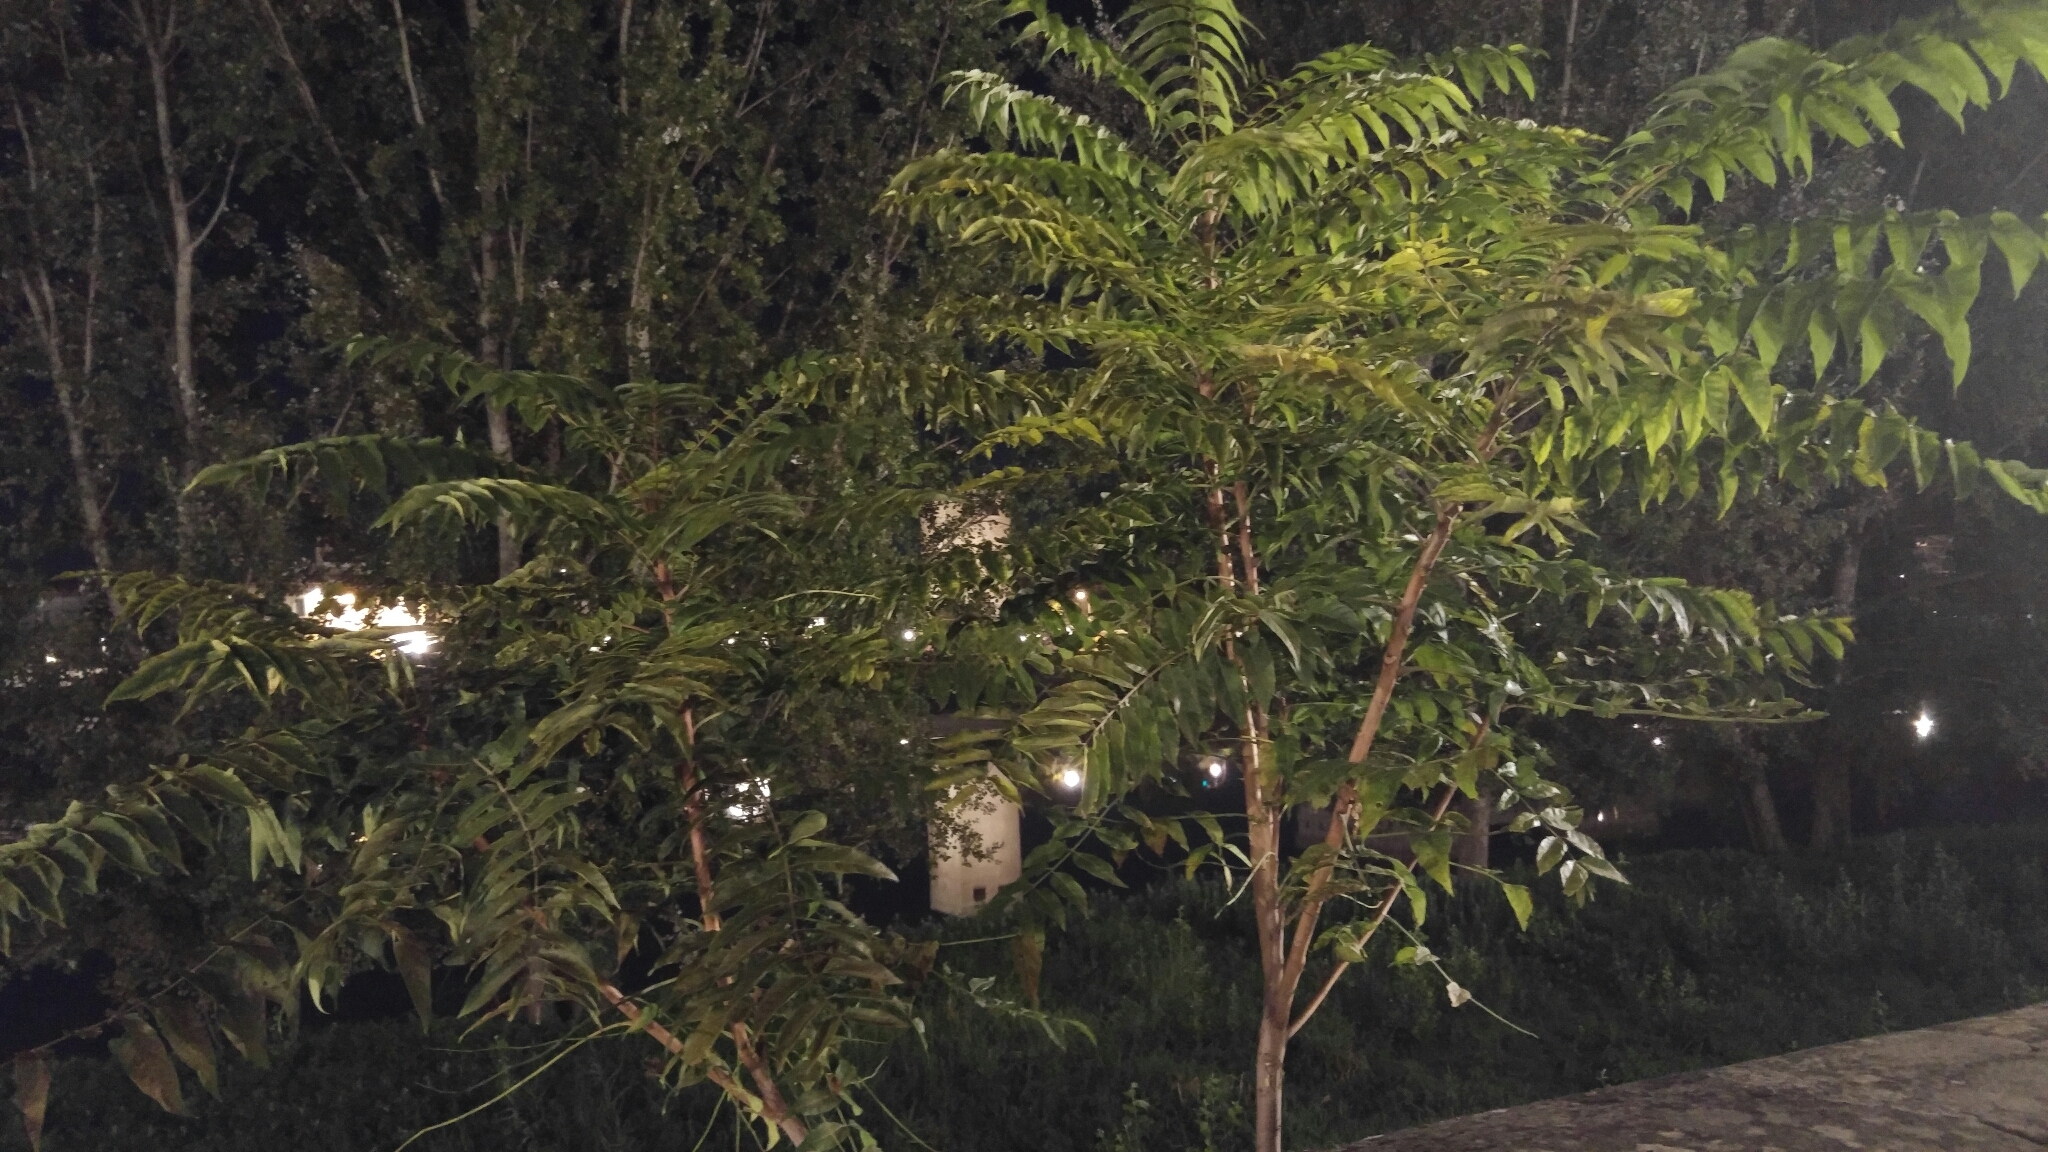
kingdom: Plantae
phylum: Tracheophyta
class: Magnoliopsida
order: Sapindales
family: Simaroubaceae
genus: Ailanthus
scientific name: Ailanthus altissima
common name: Tree-of-heaven
